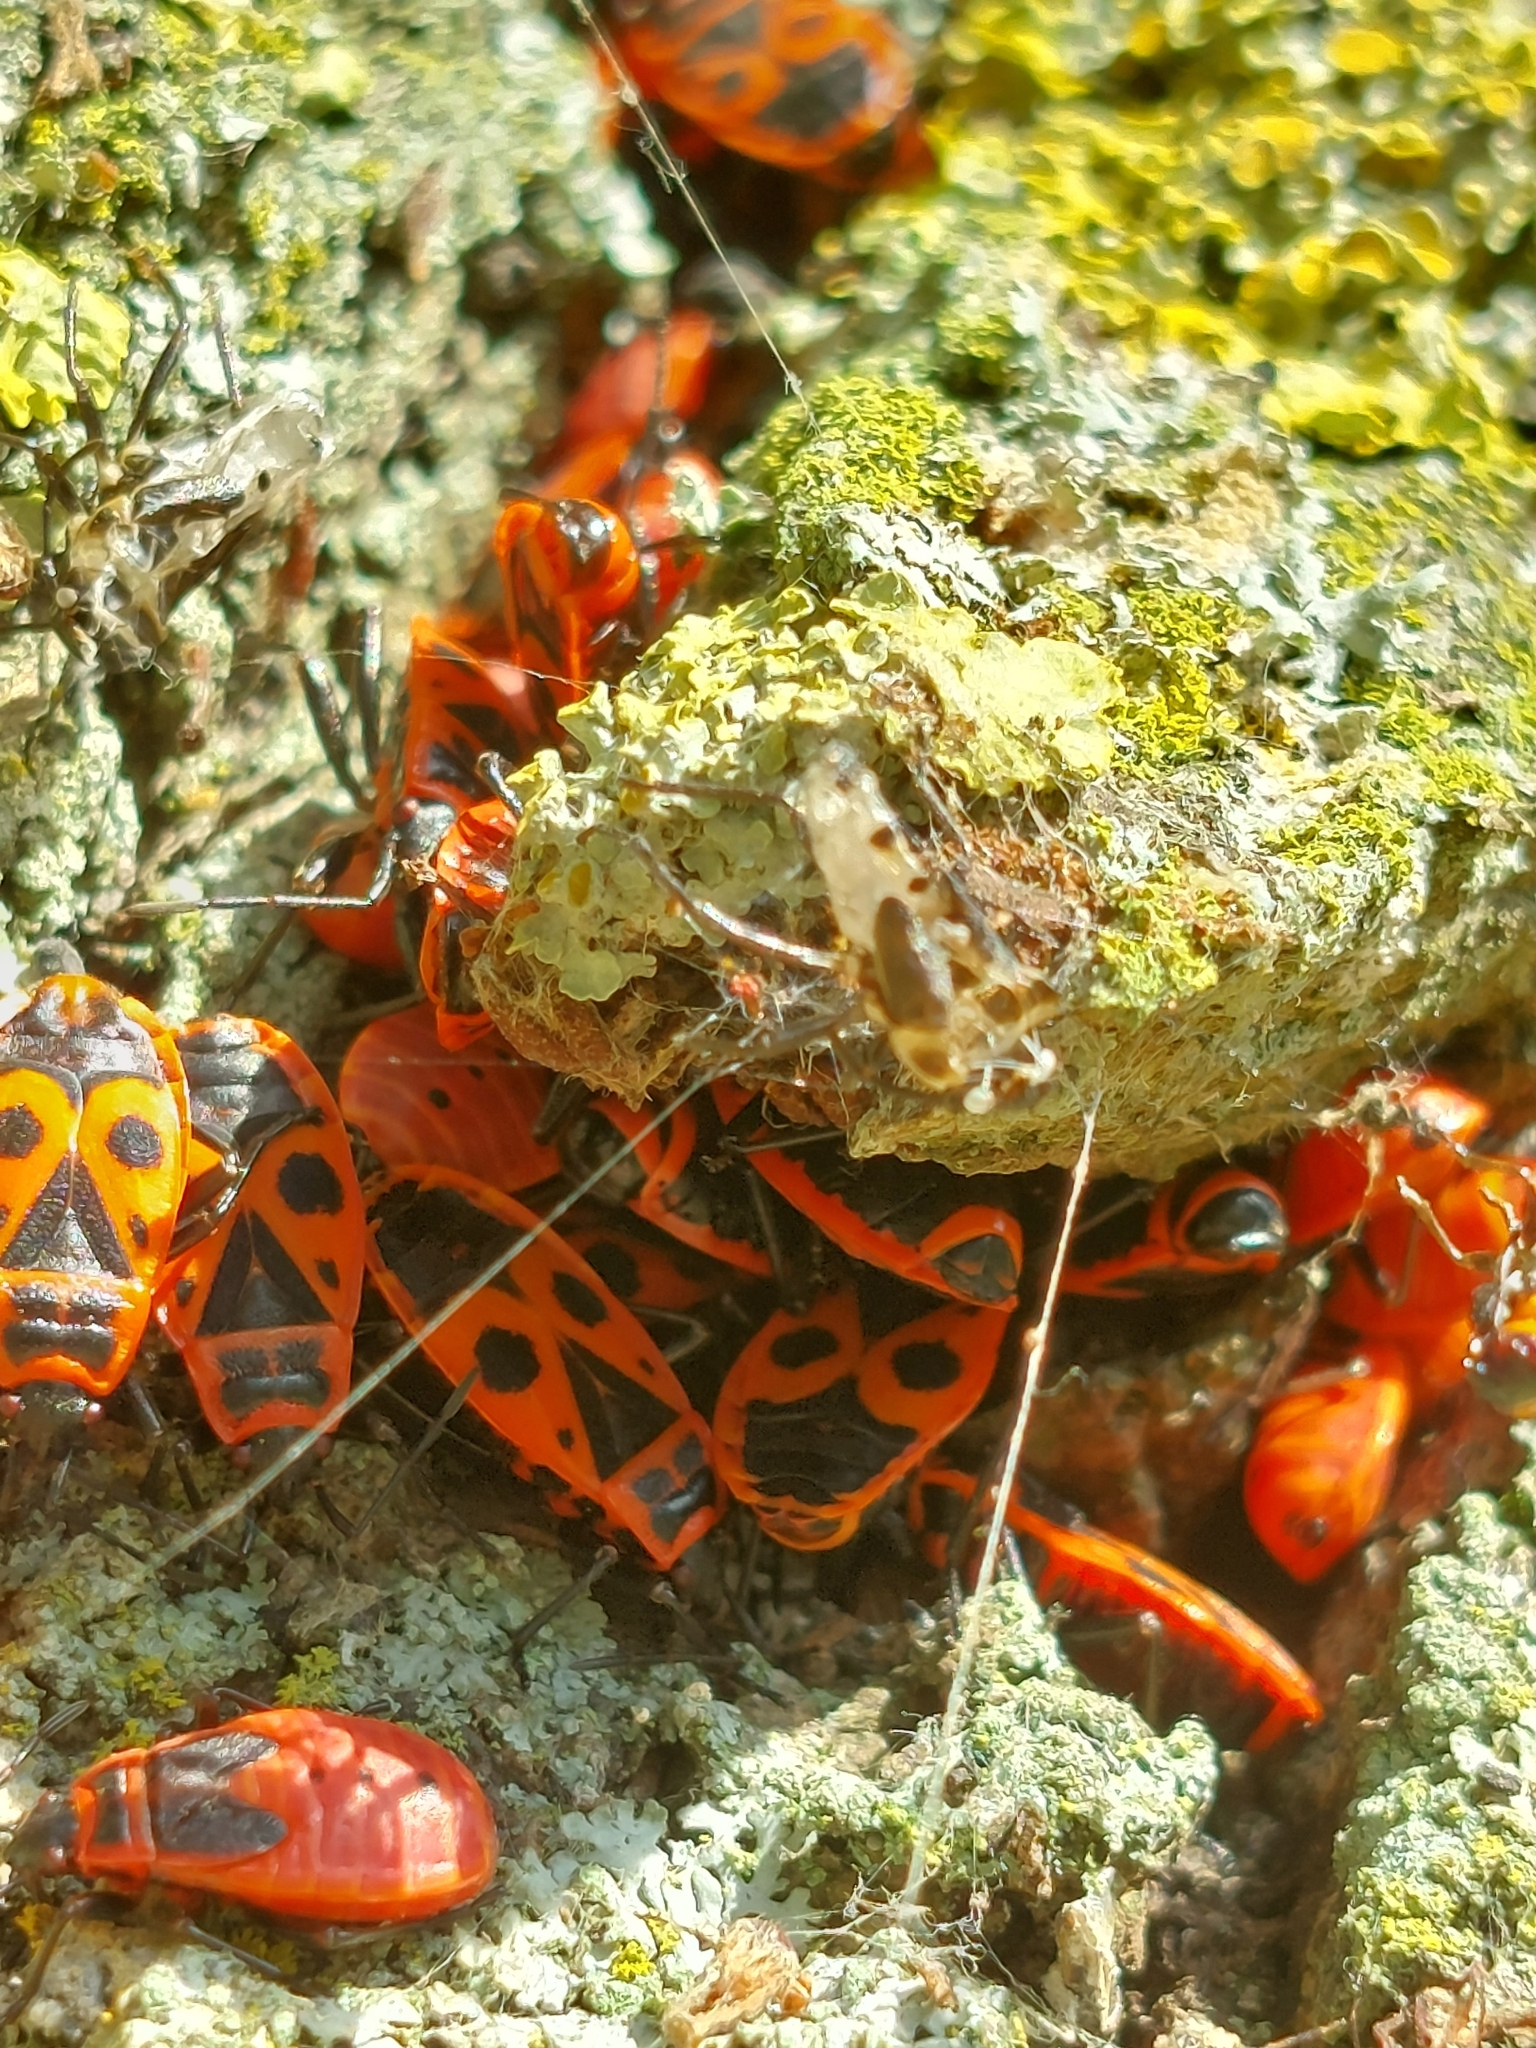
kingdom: Animalia
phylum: Arthropoda
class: Insecta
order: Hemiptera
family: Pyrrhocoridae
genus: Pyrrhocoris
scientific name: Pyrrhocoris apterus
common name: Firebug
